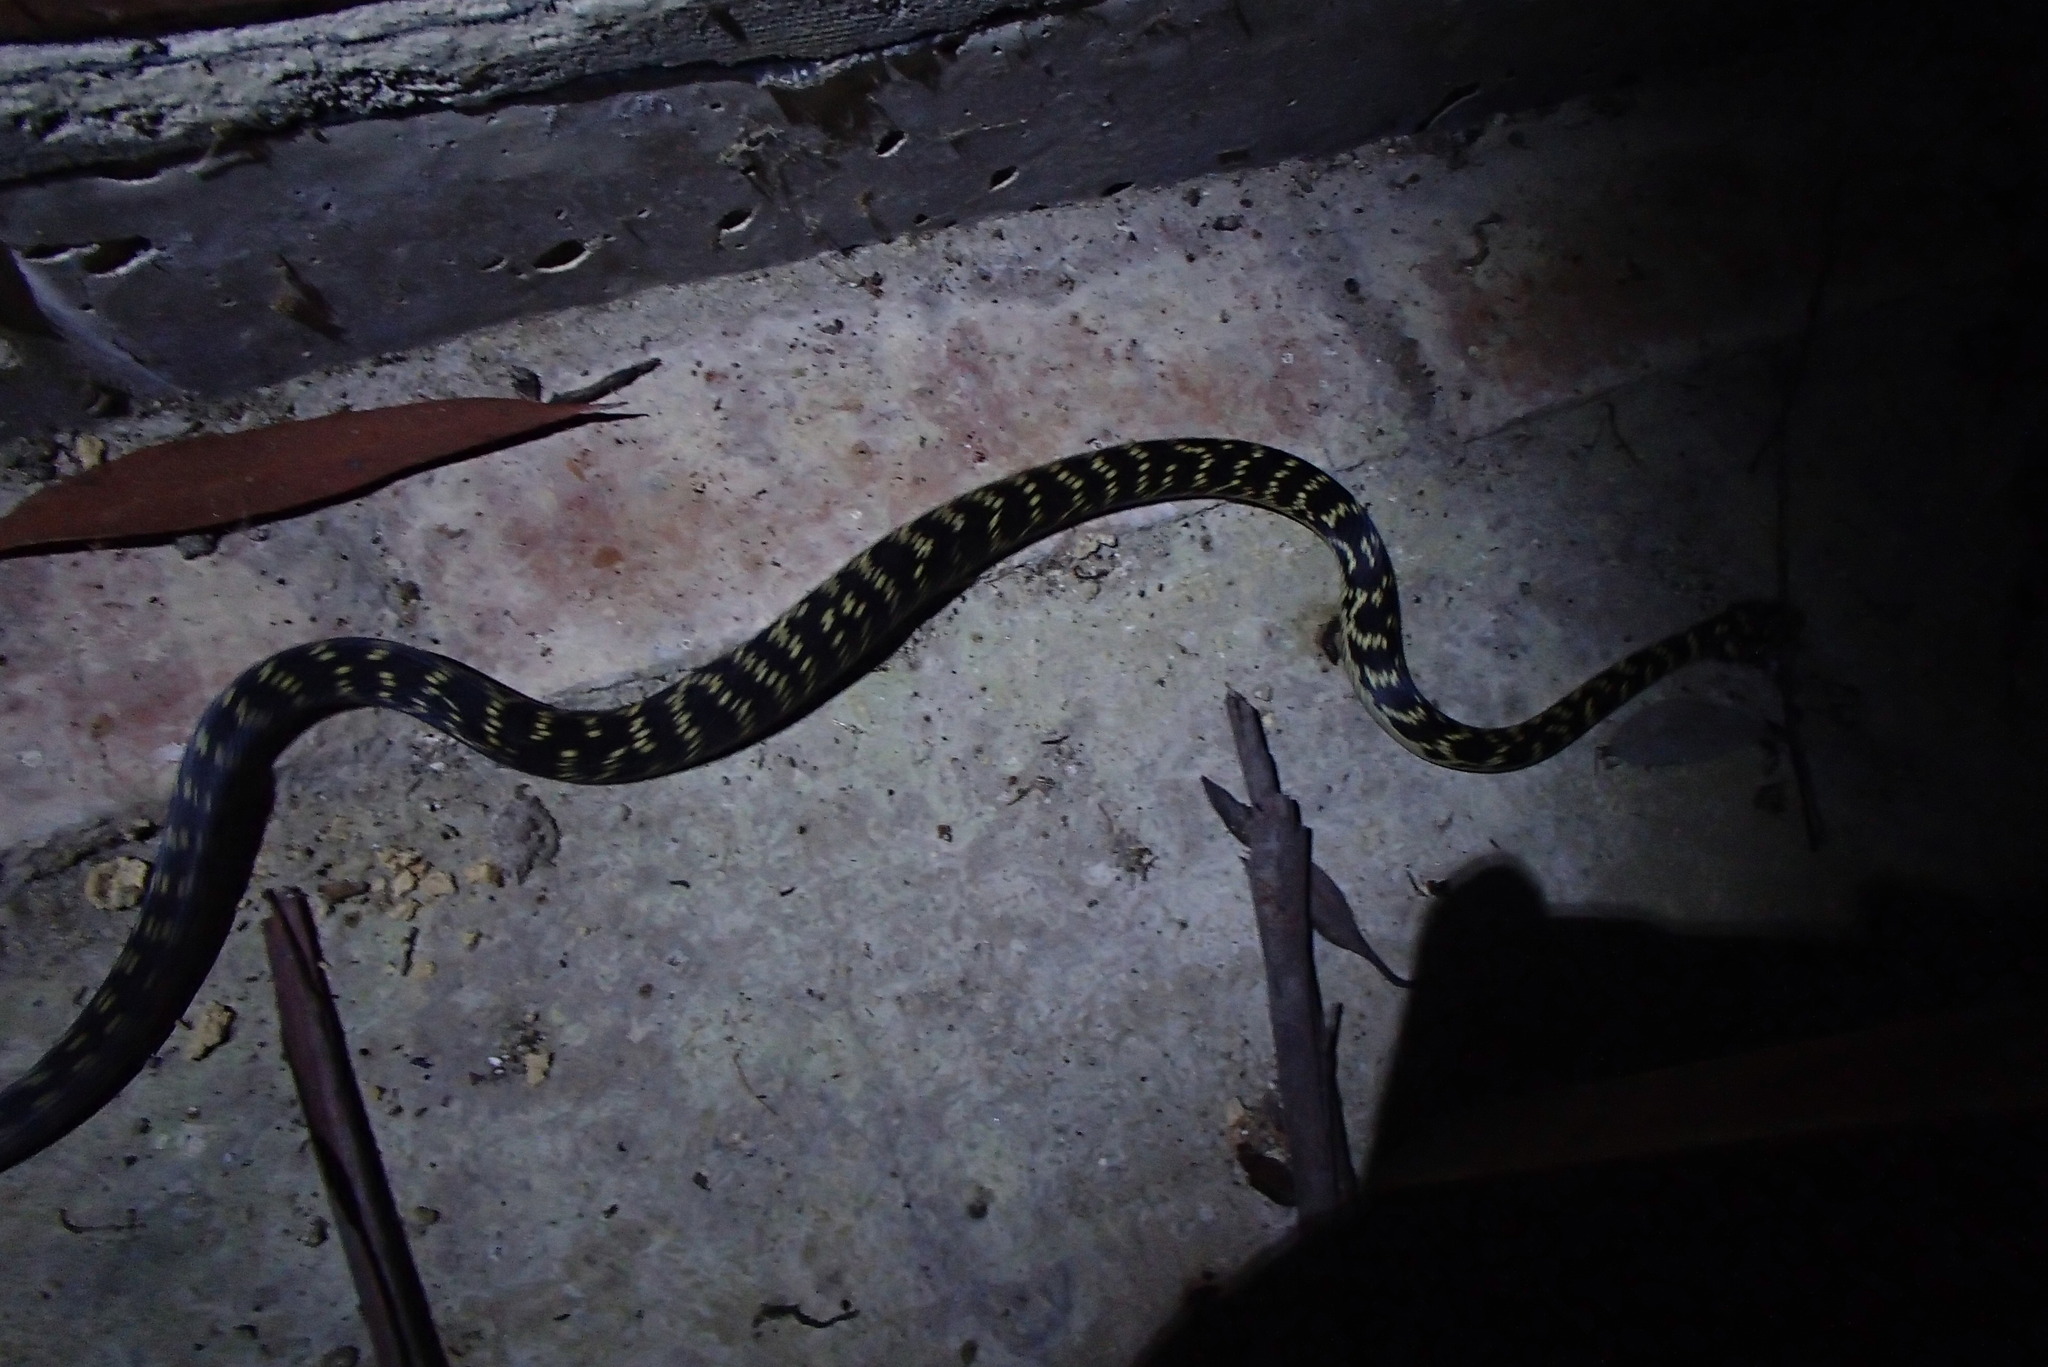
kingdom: Animalia
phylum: Chordata
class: Squamata
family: Elapidae
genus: Hoplocephalus
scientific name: Hoplocephalus bungaroides
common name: Broad-headed snake
